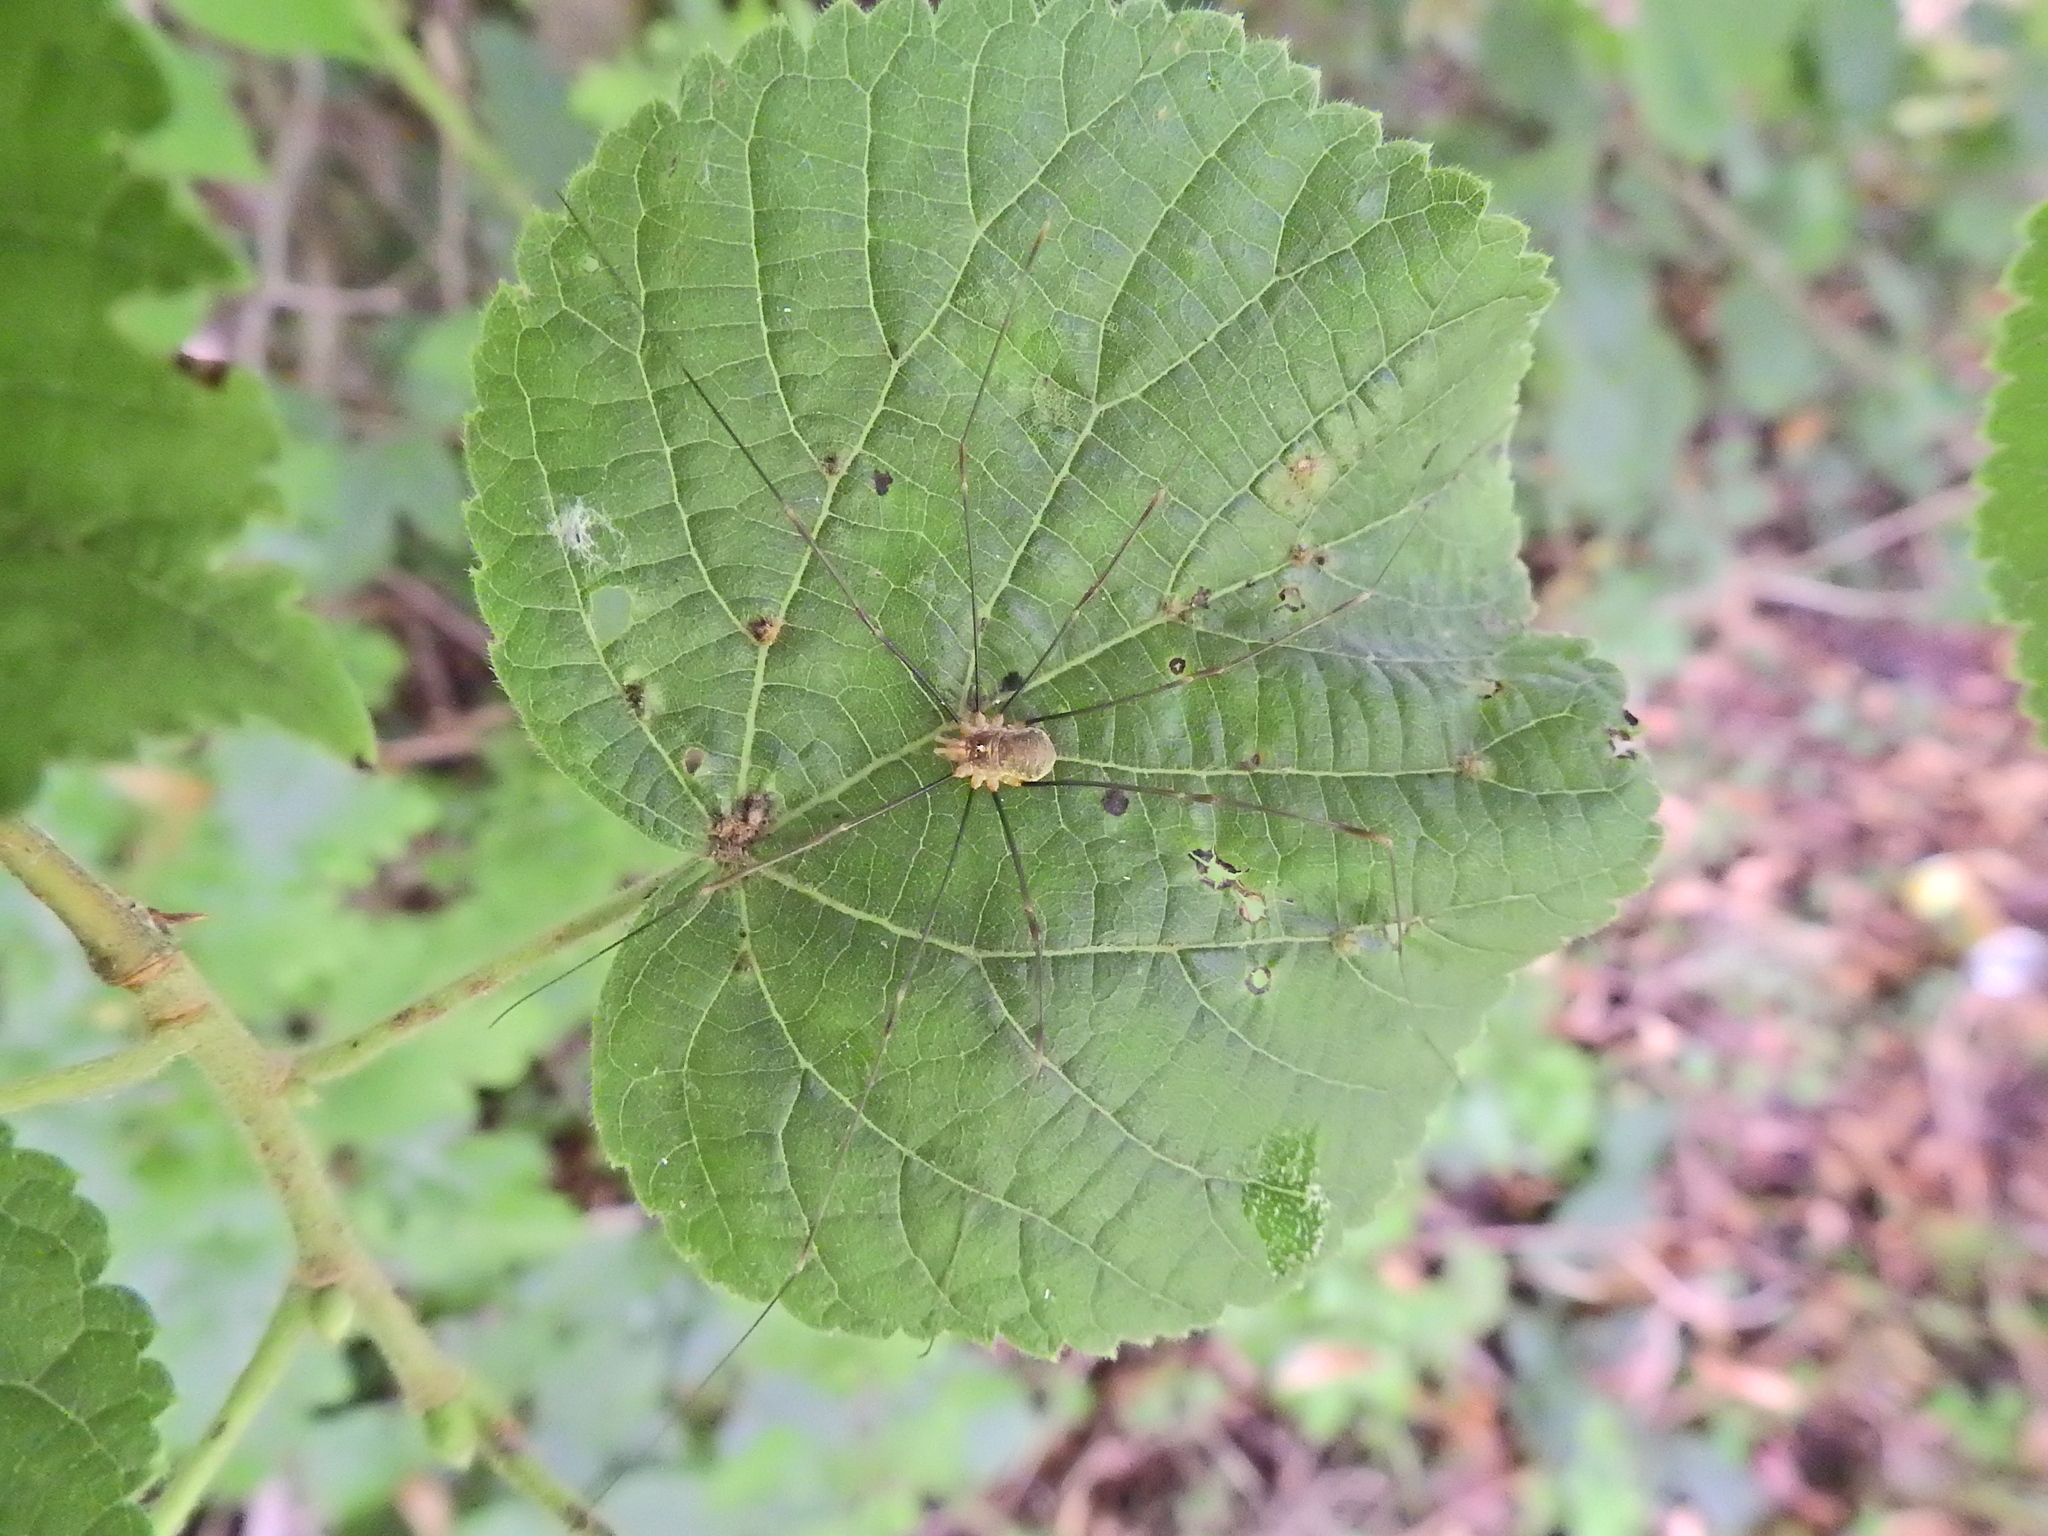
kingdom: Animalia
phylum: Arthropoda
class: Arachnida
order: Opiliones
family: Phalangiidae
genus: Opilio
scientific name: Opilio canestrinii
